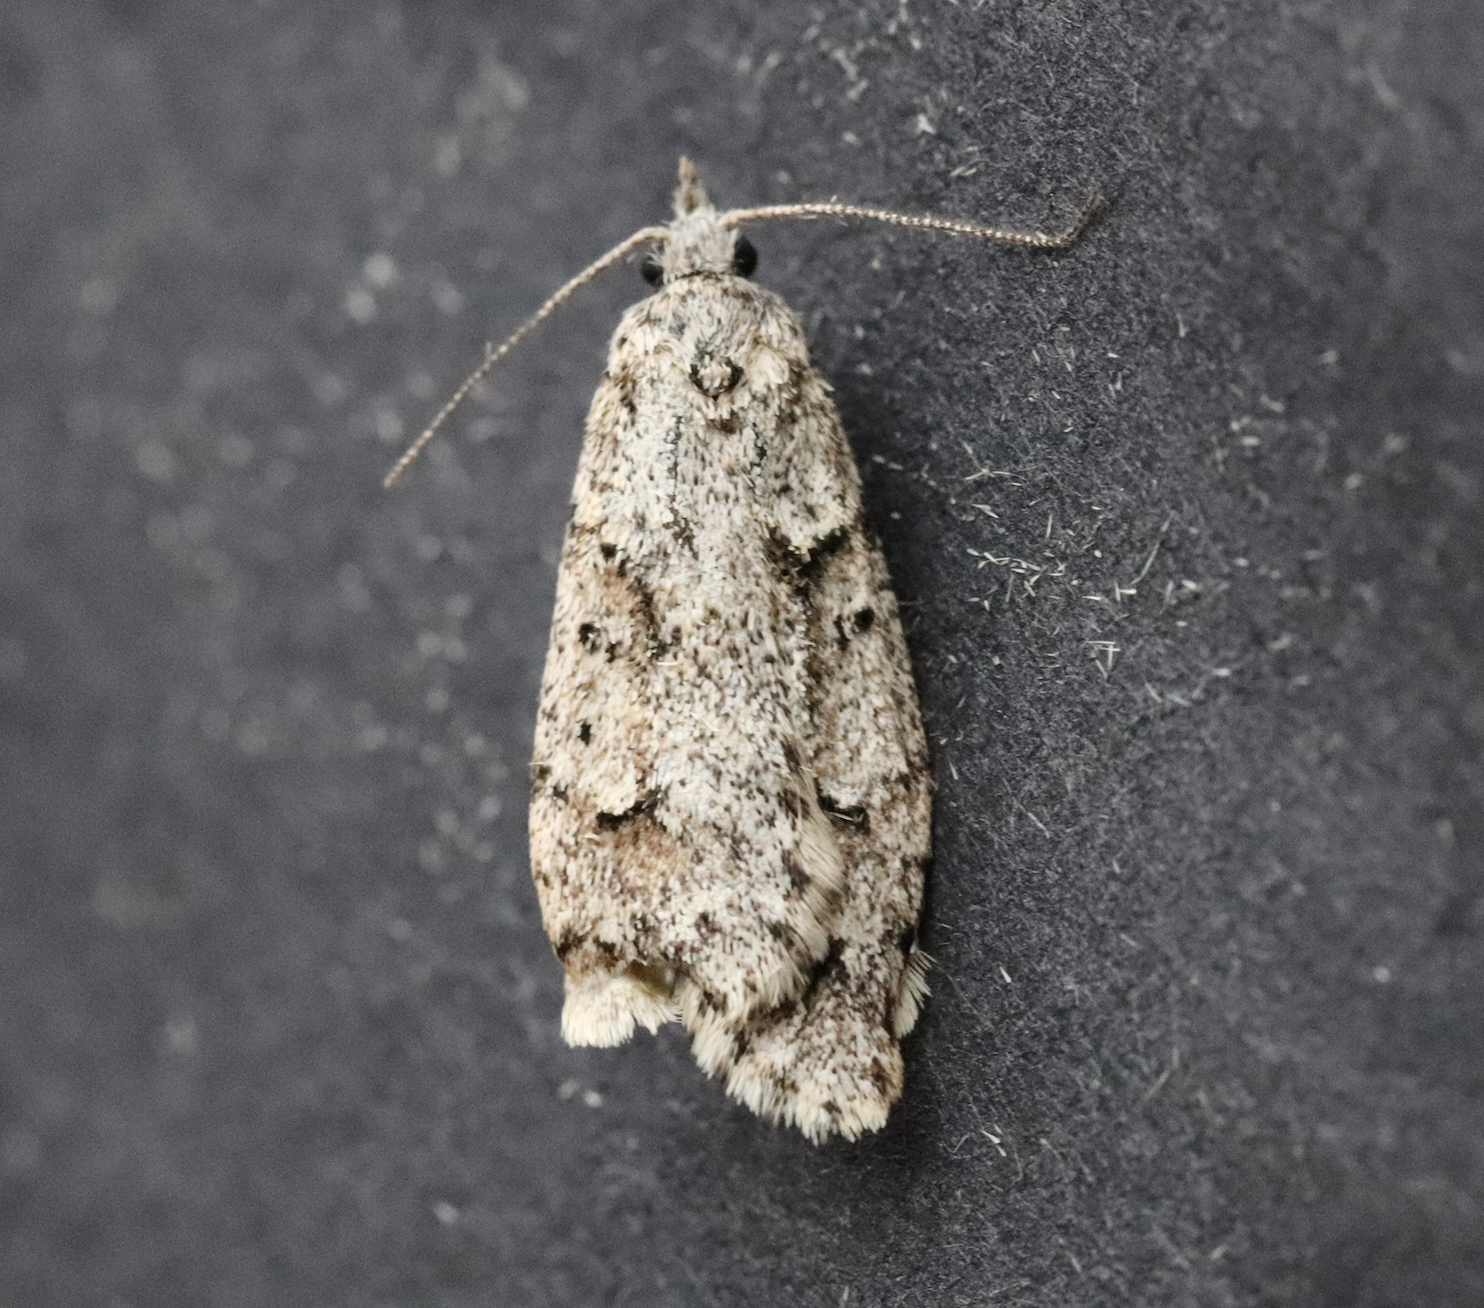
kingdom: Animalia
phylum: Arthropoda
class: Insecta
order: Lepidoptera
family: Lypusidae
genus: Diurnea
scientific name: Diurnea fagella
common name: March tubic
